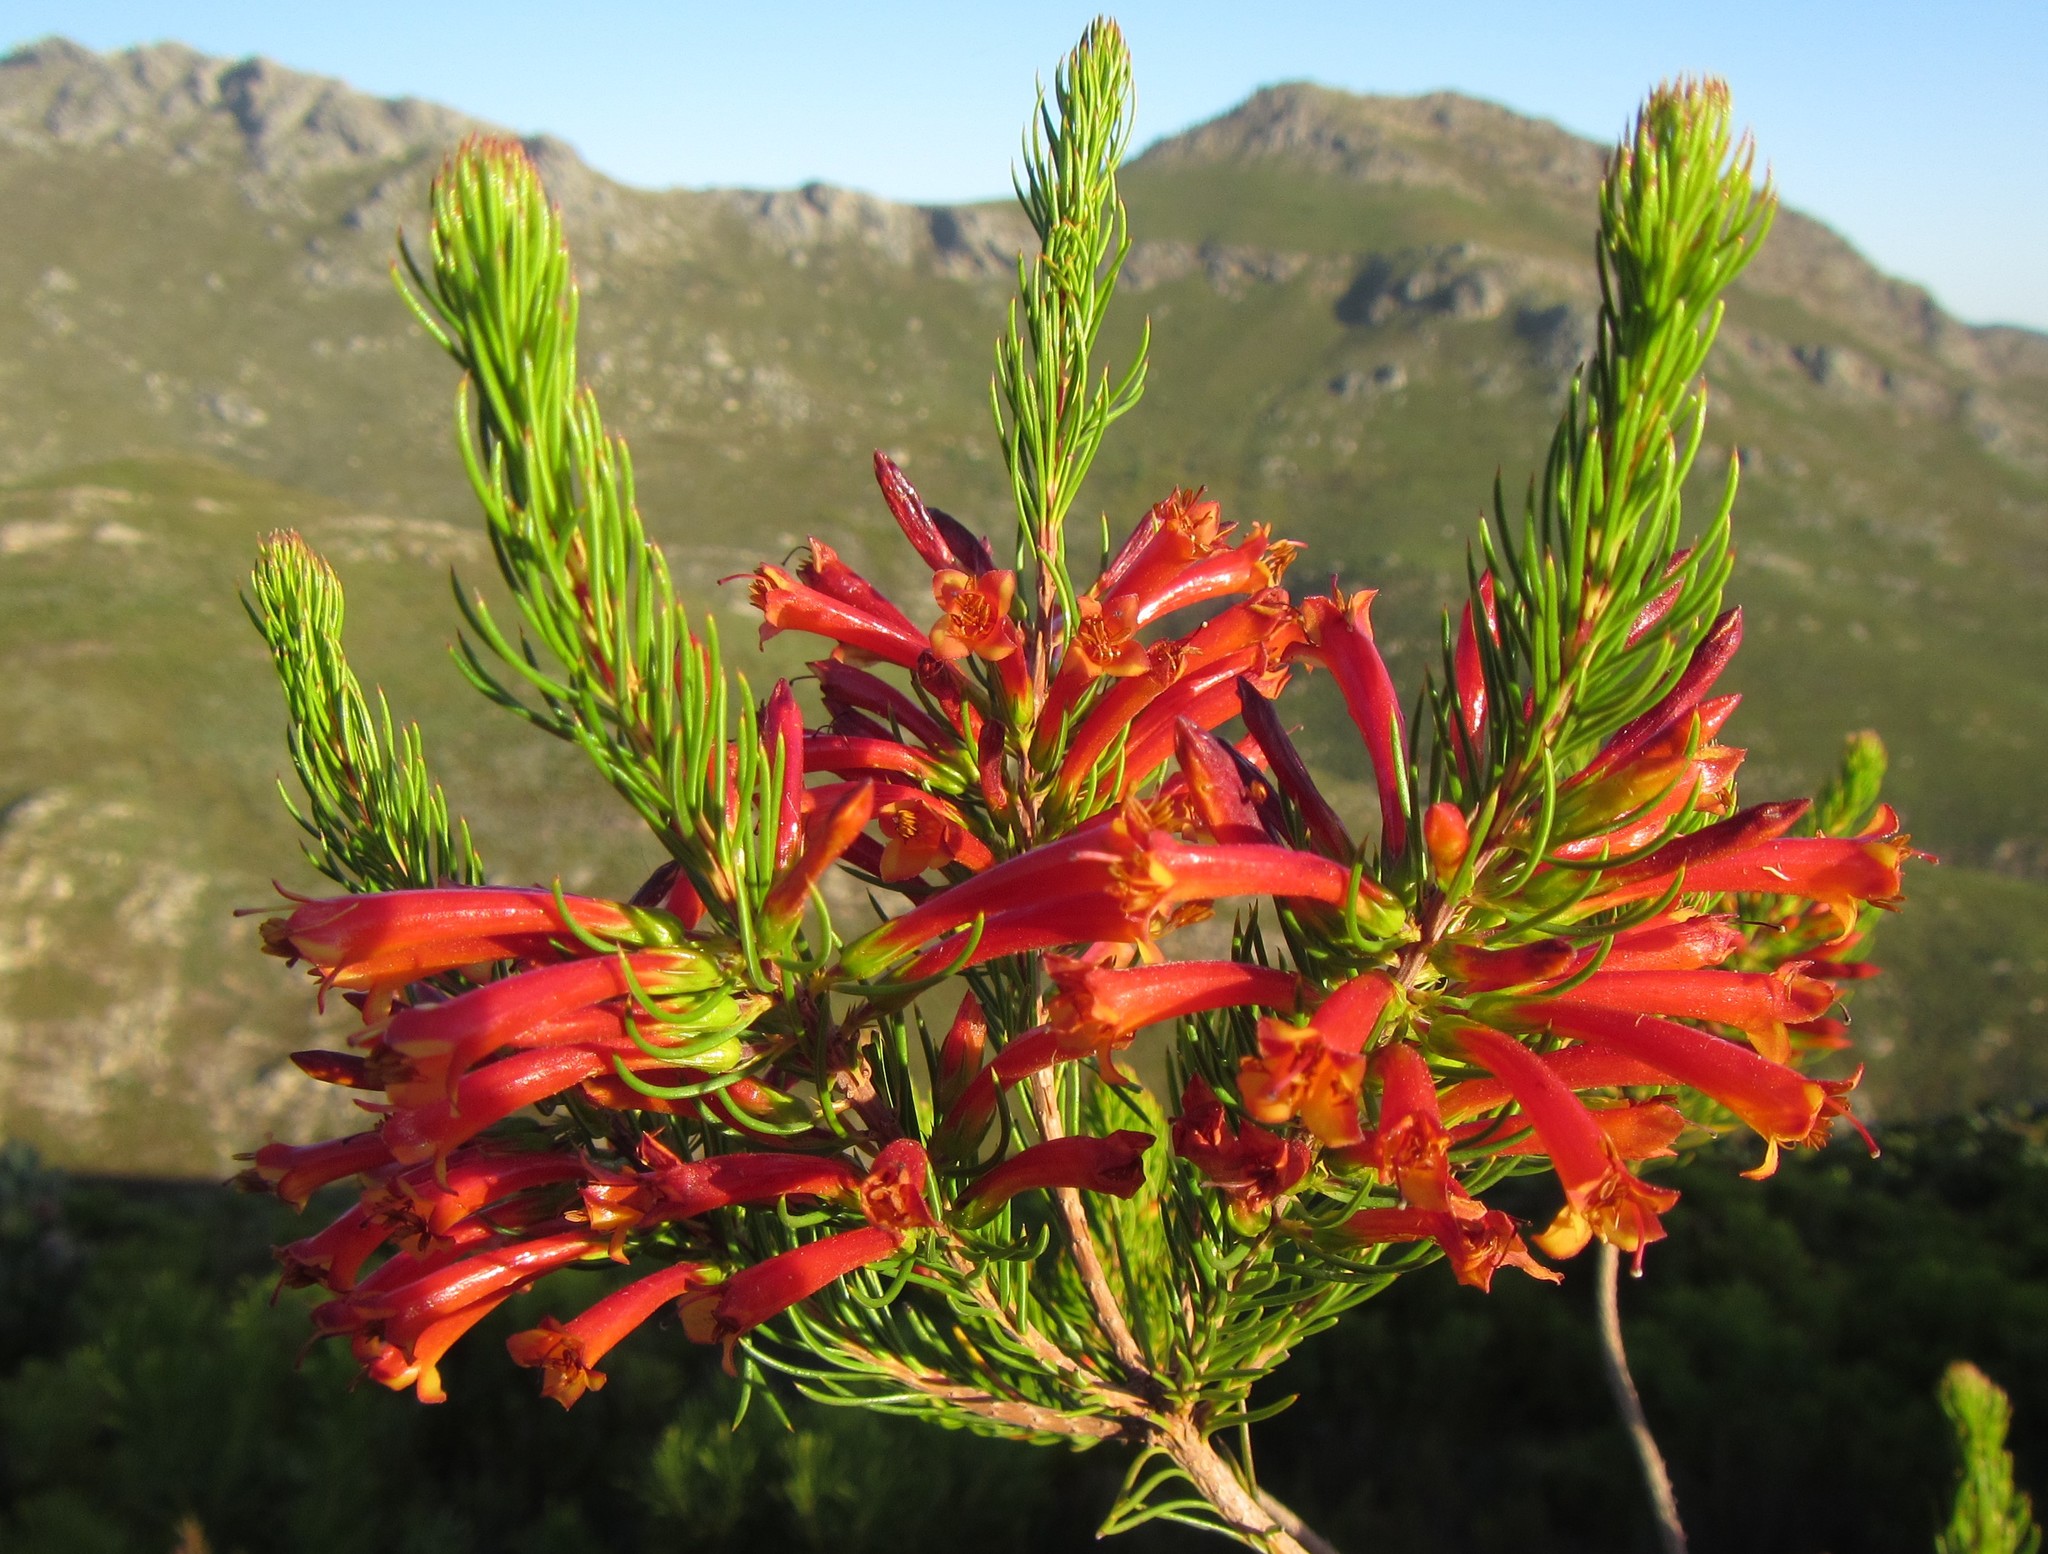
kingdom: Plantae
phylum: Tracheophyta
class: Magnoliopsida
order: Ericales
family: Ericaceae
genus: Erica
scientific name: Erica grandiflora
